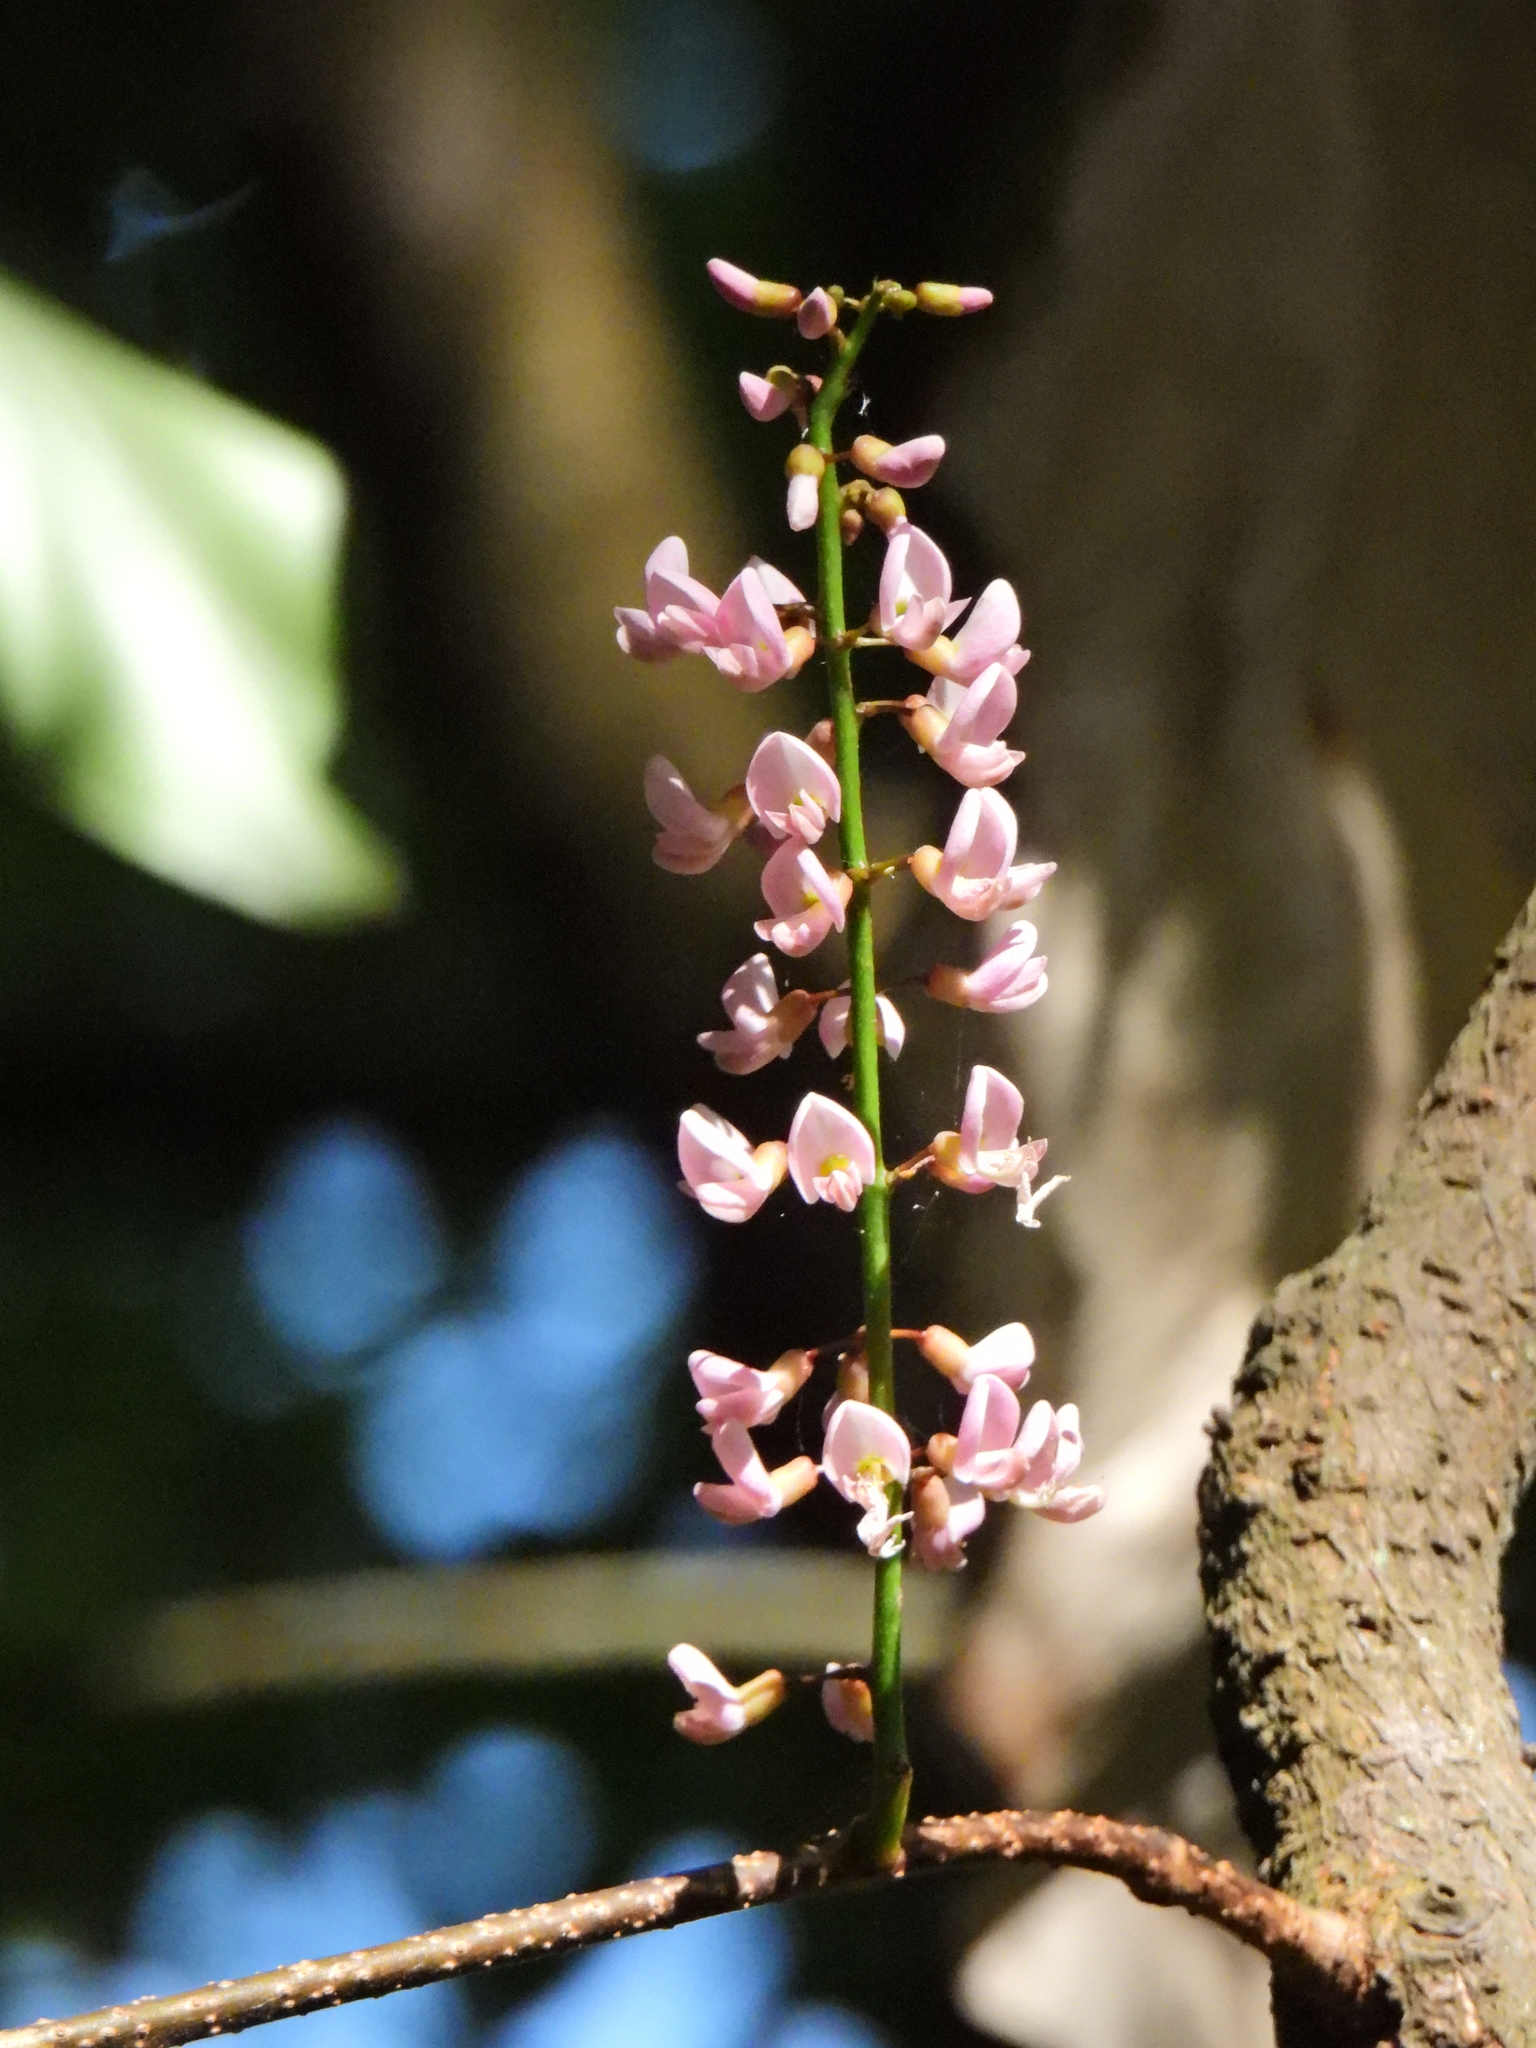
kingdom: Plantae
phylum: Tracheophyta
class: Magnoliopsida
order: Fabales
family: Fabaceae
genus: Derris
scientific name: Derris trifoliata
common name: Three-leaf derris
